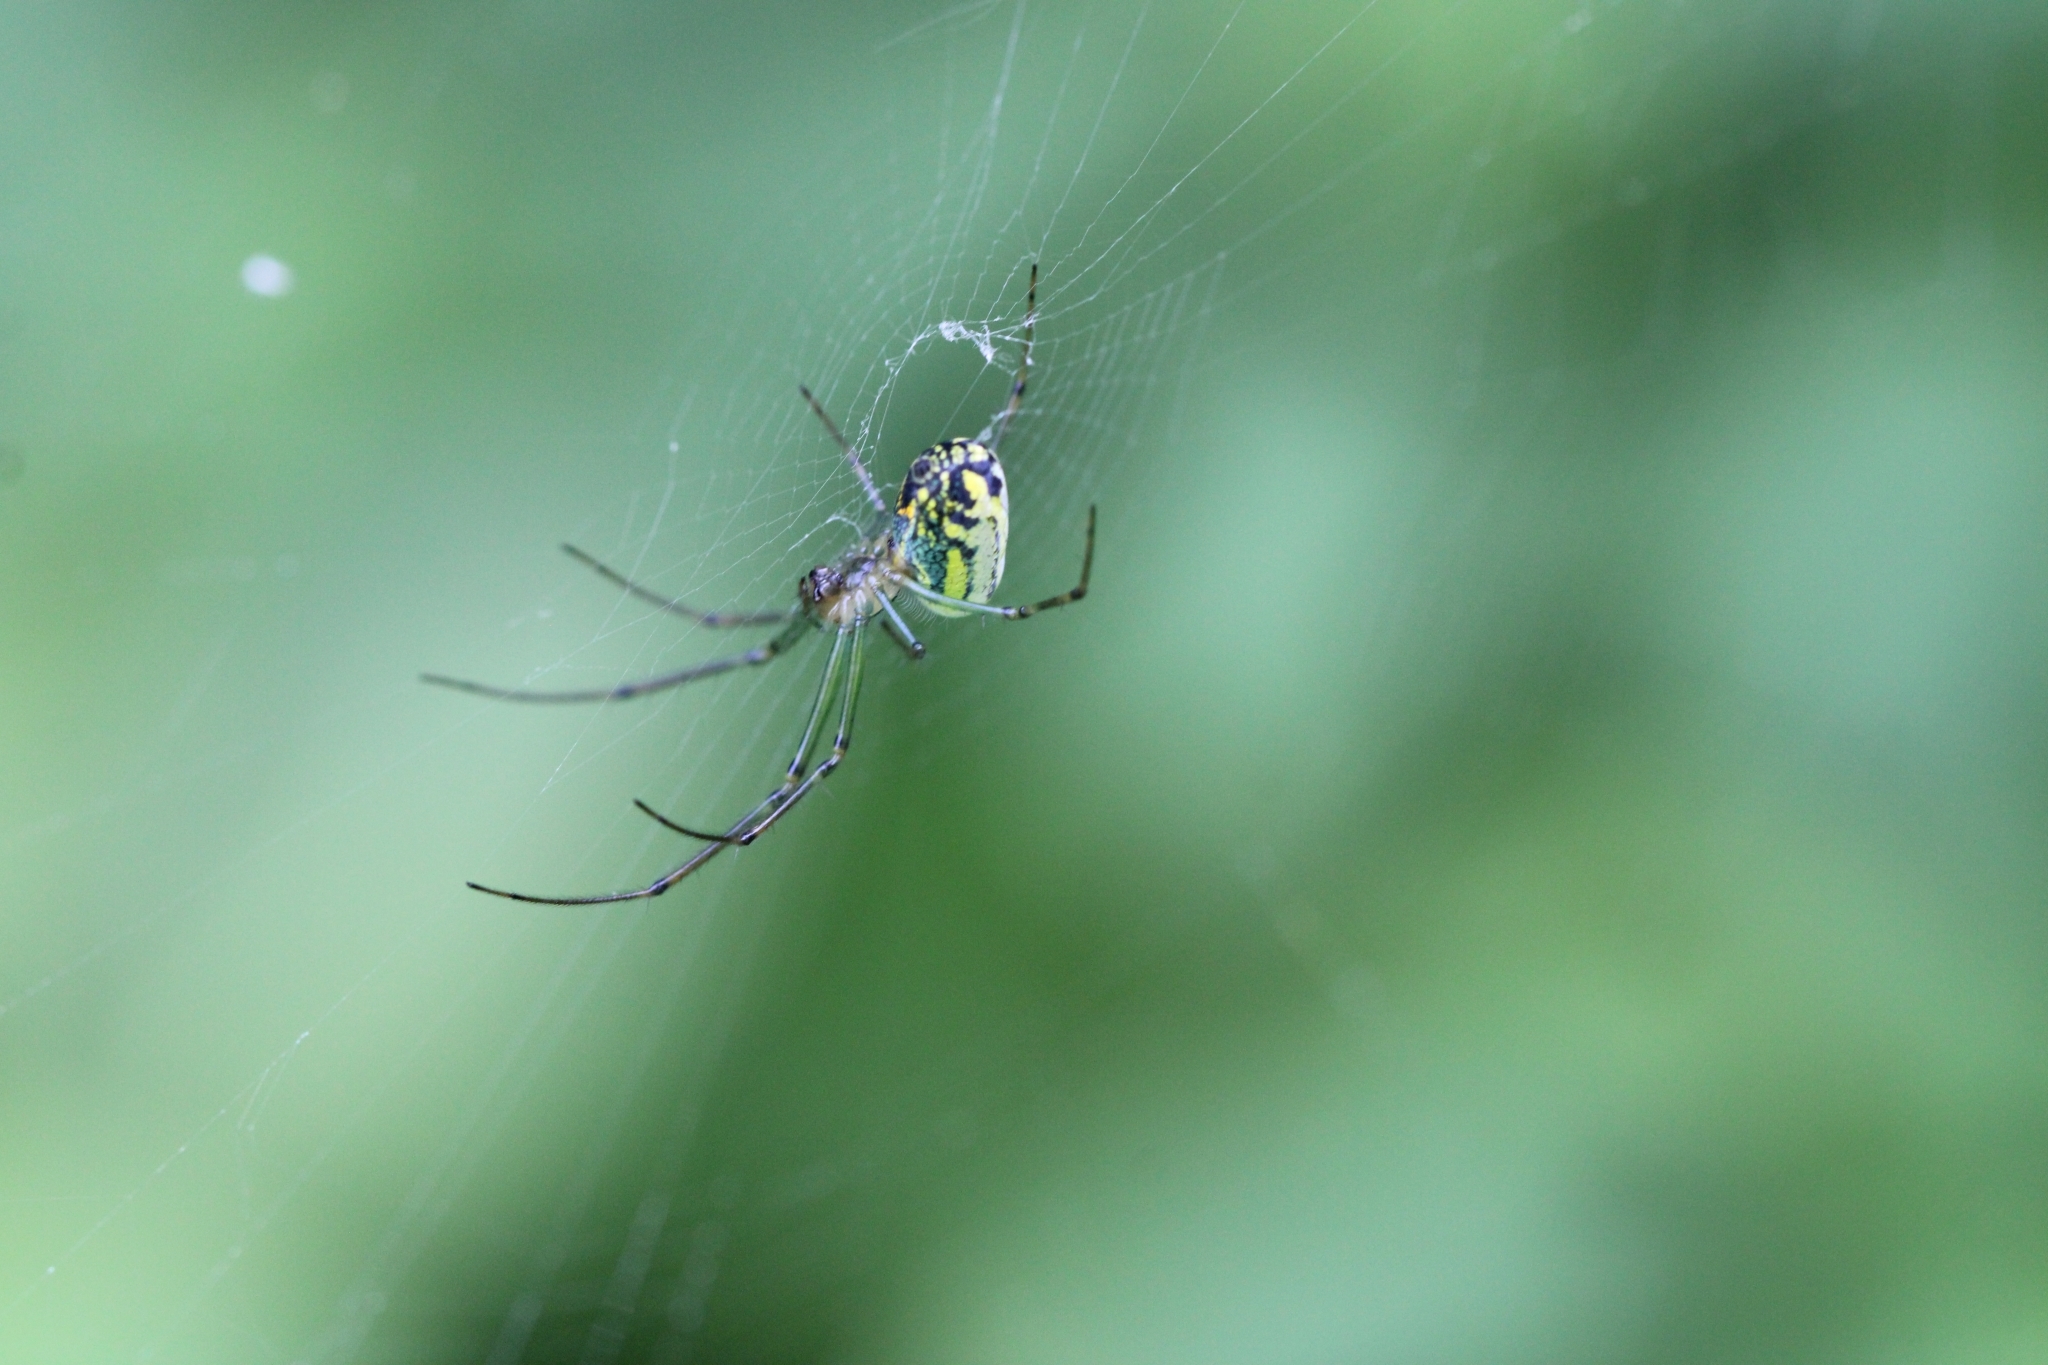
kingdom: Animalia
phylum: Arthropoda
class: Arachnida
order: Araneae
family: Tetragnathidae
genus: Leucauge
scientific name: Leucauge venusta
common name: Longjawed orb weavers
